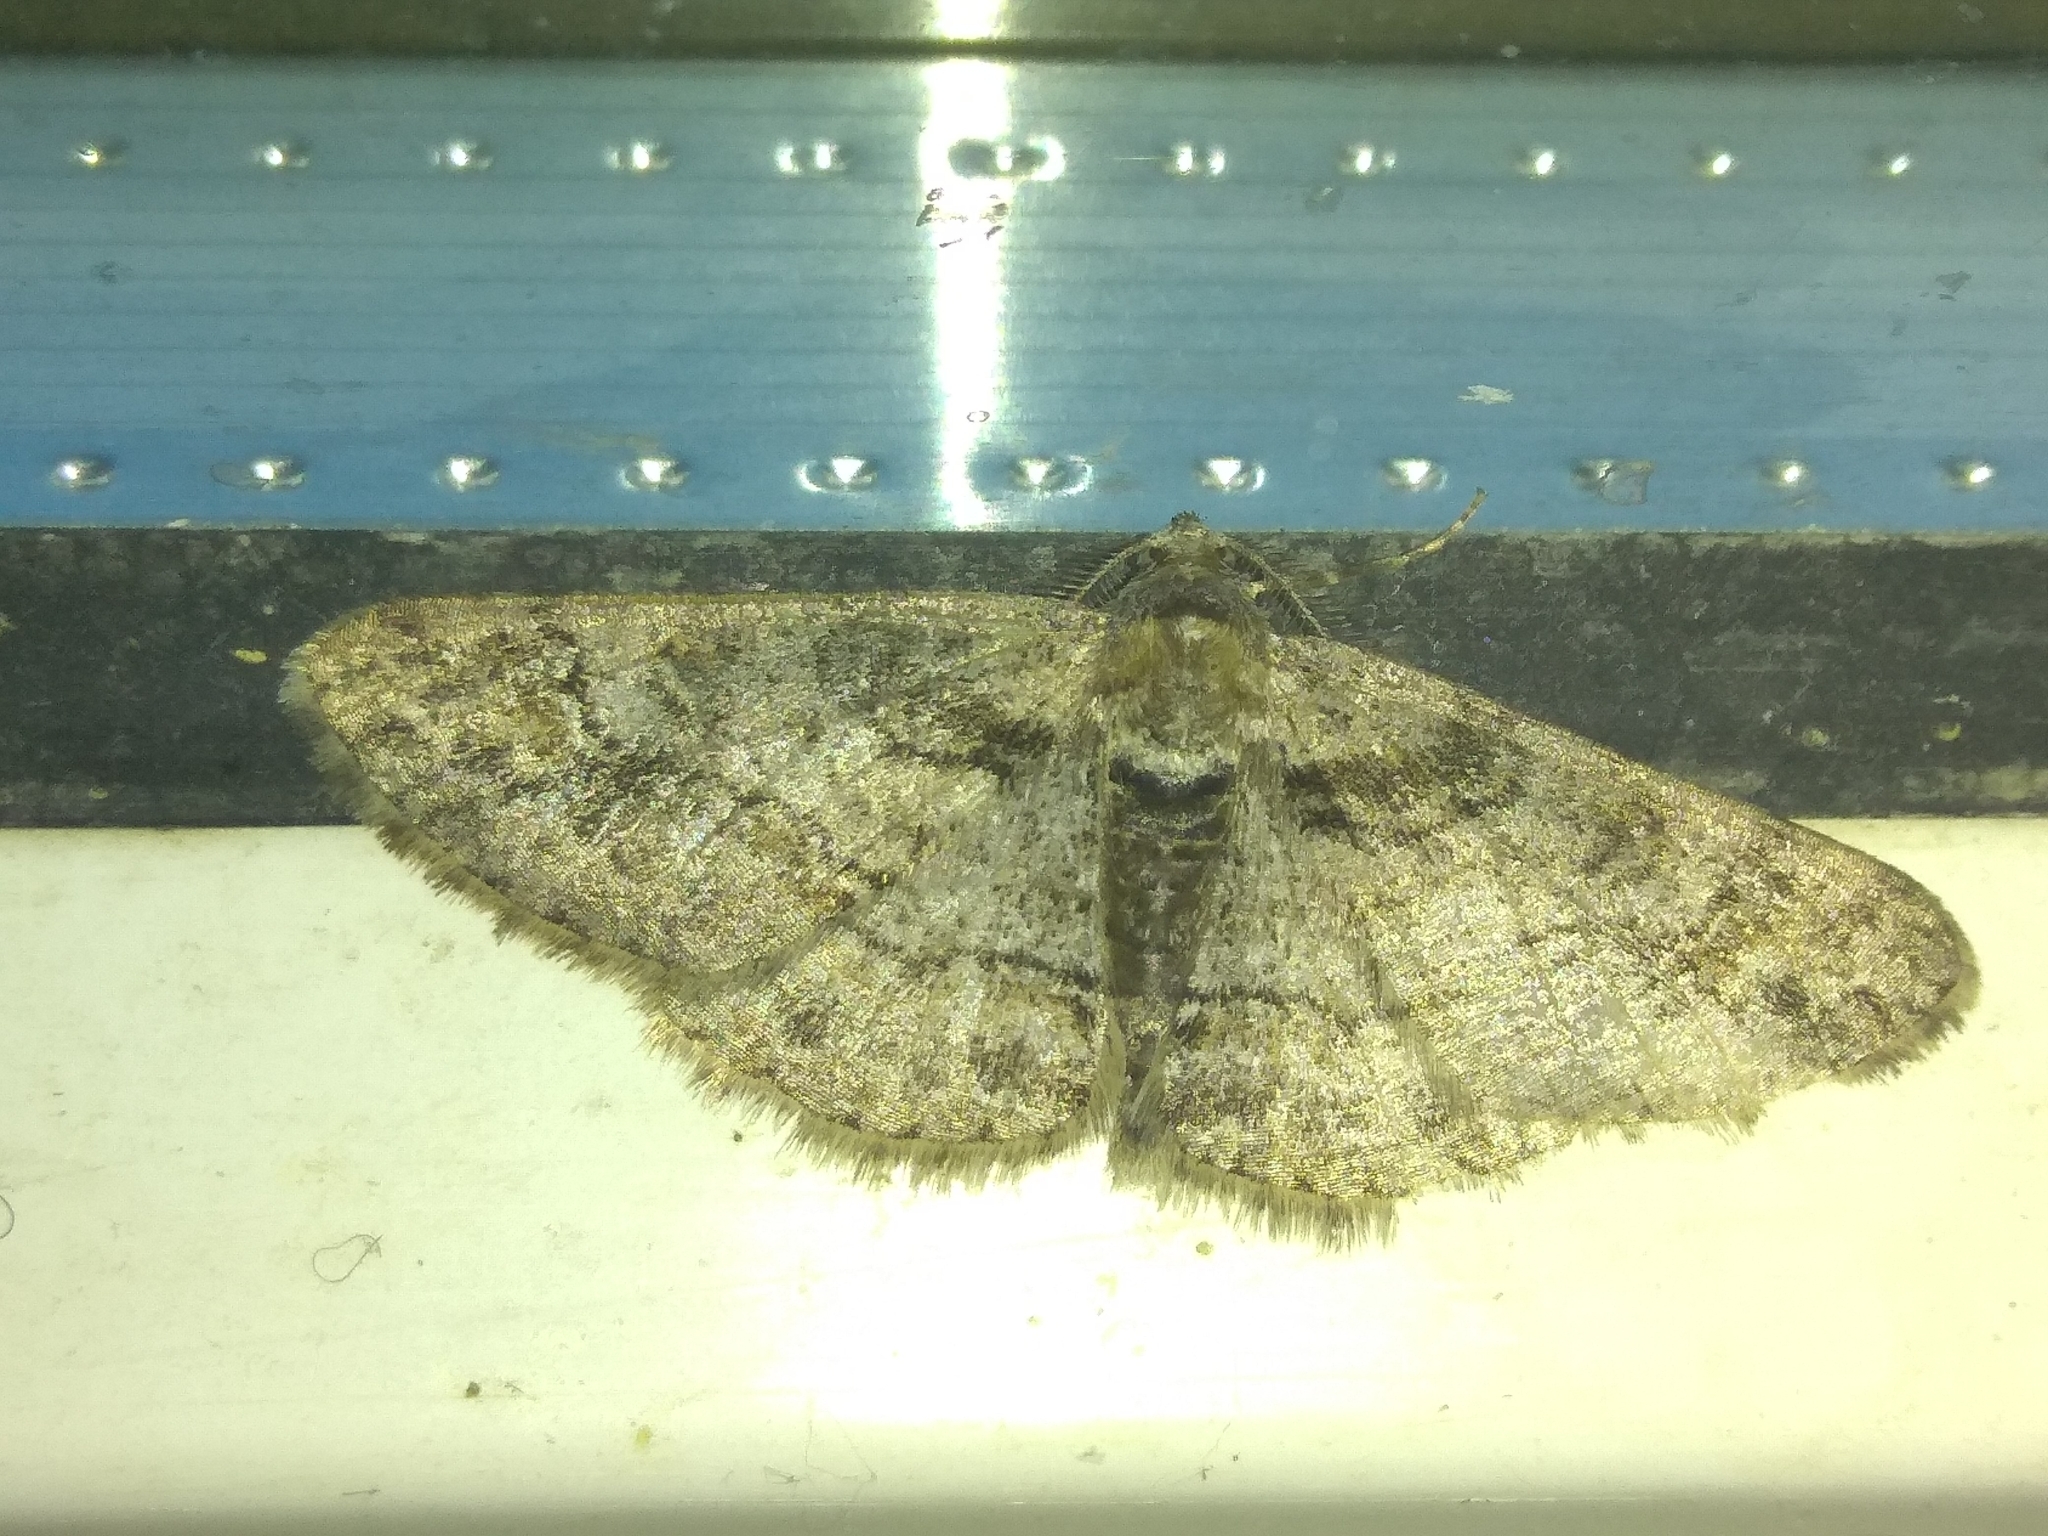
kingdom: Animalia
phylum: Arthropoda
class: Insecta
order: Lepidoptera
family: Geometridae
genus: Cleora
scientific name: Cleora cinctaria
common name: Ringed carpet
